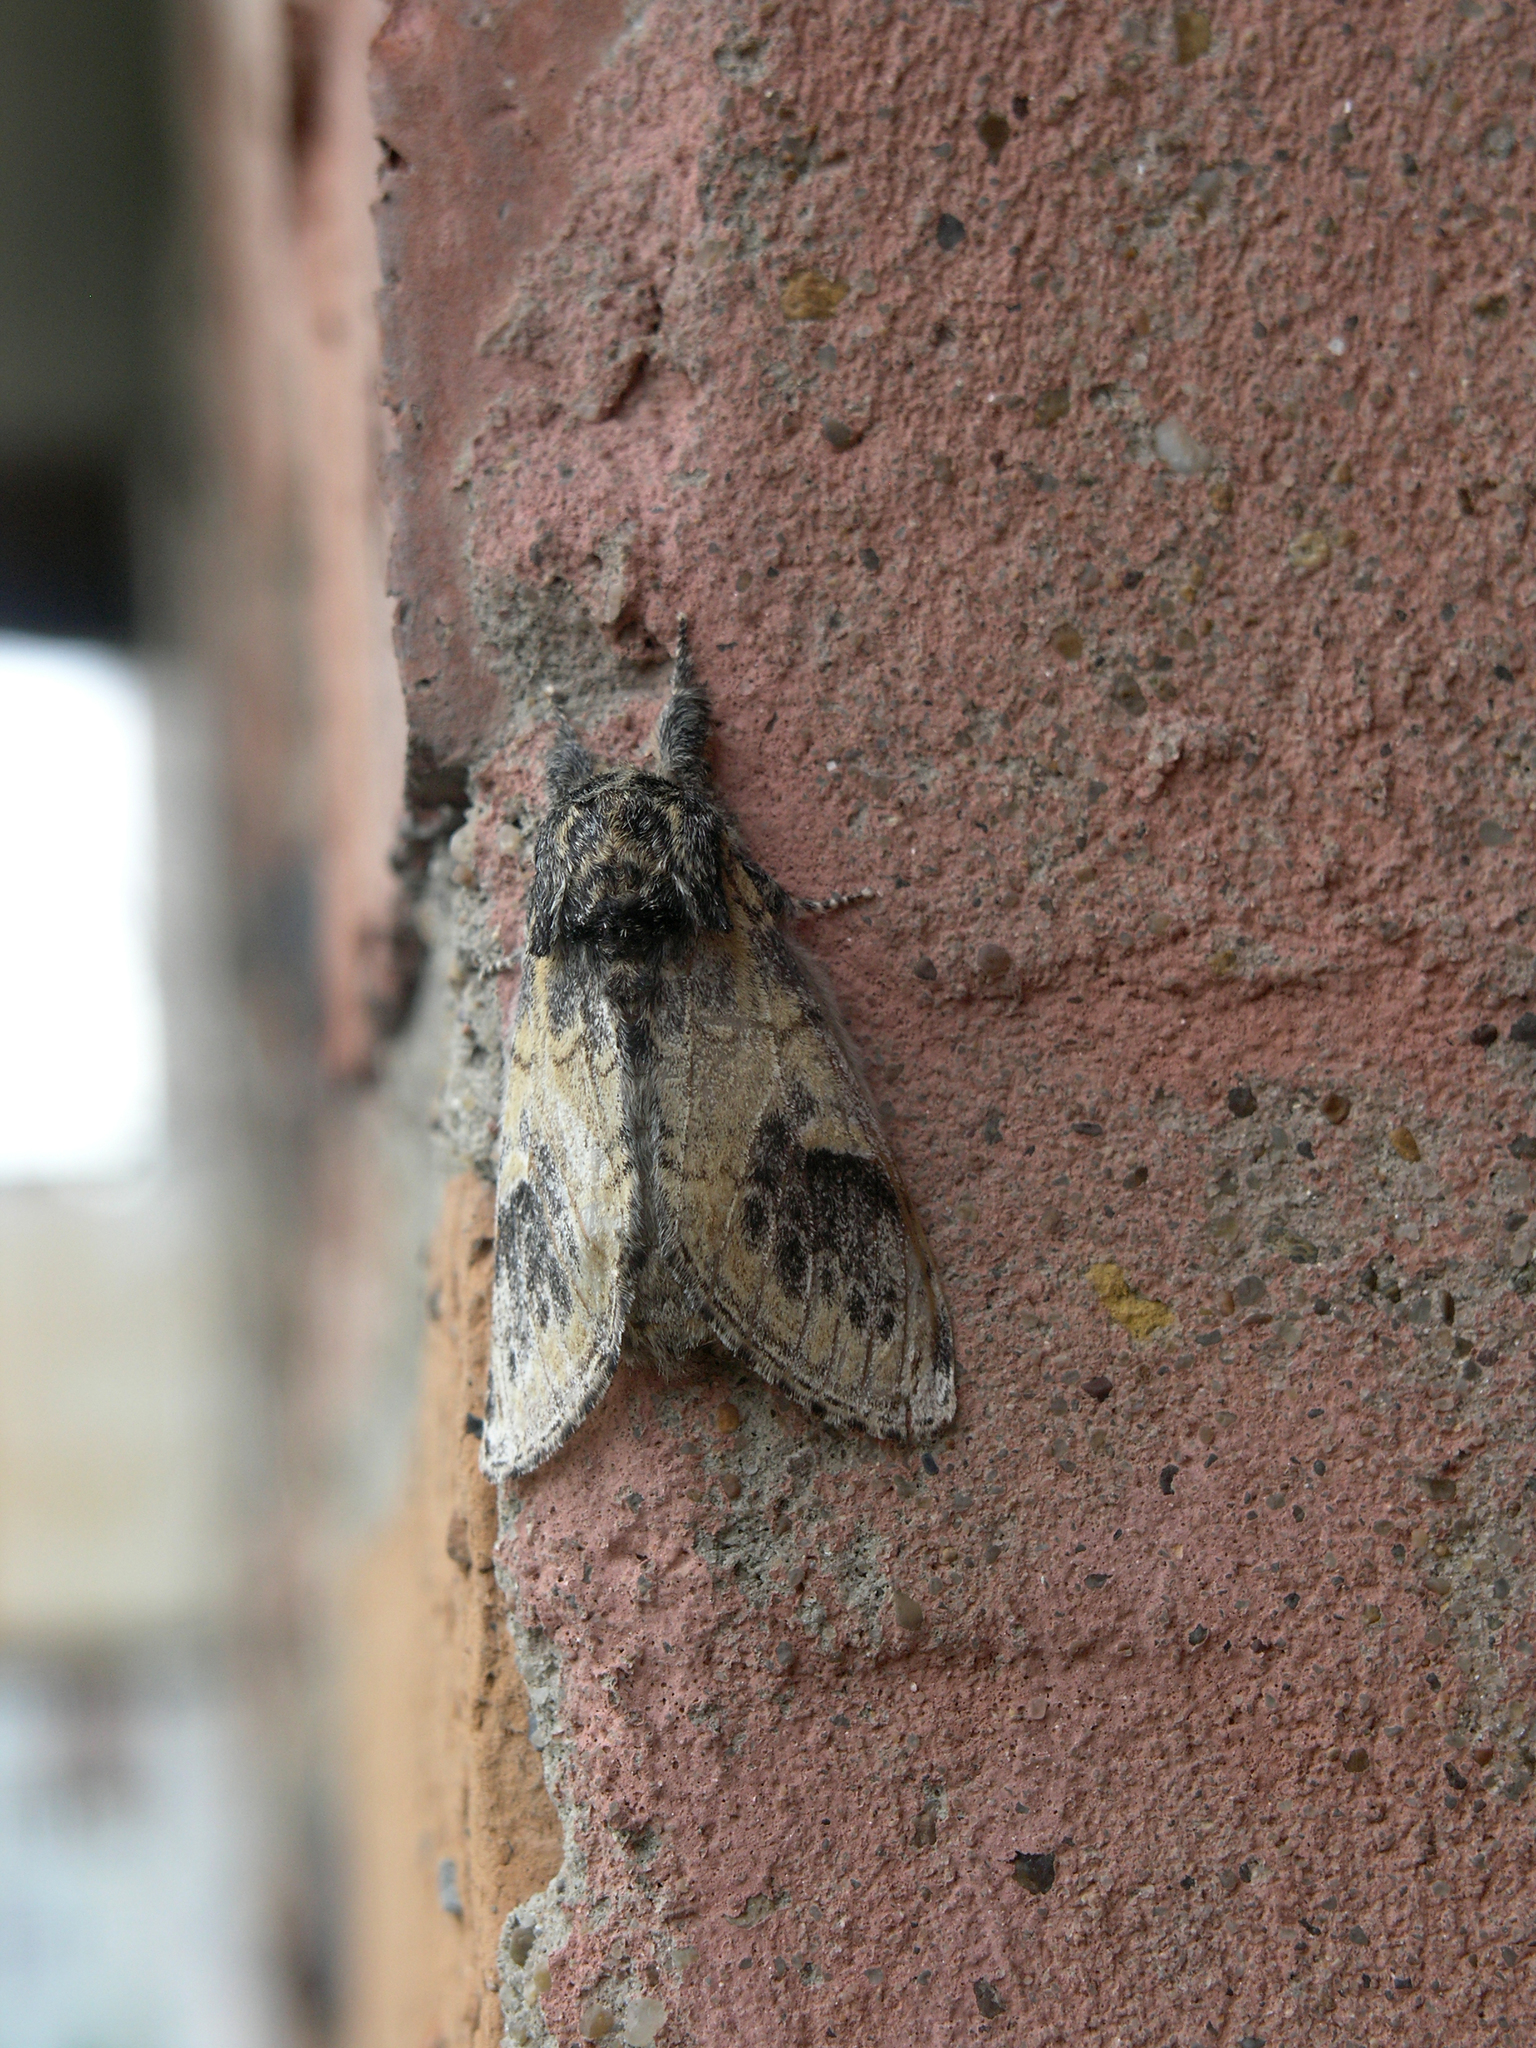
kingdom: Animalia
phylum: Arthropoda
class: Insecta
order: Lepidoptera
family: Notodontidae
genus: Notodonta
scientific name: Notodonta tritophus
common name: Three-humped prominent
